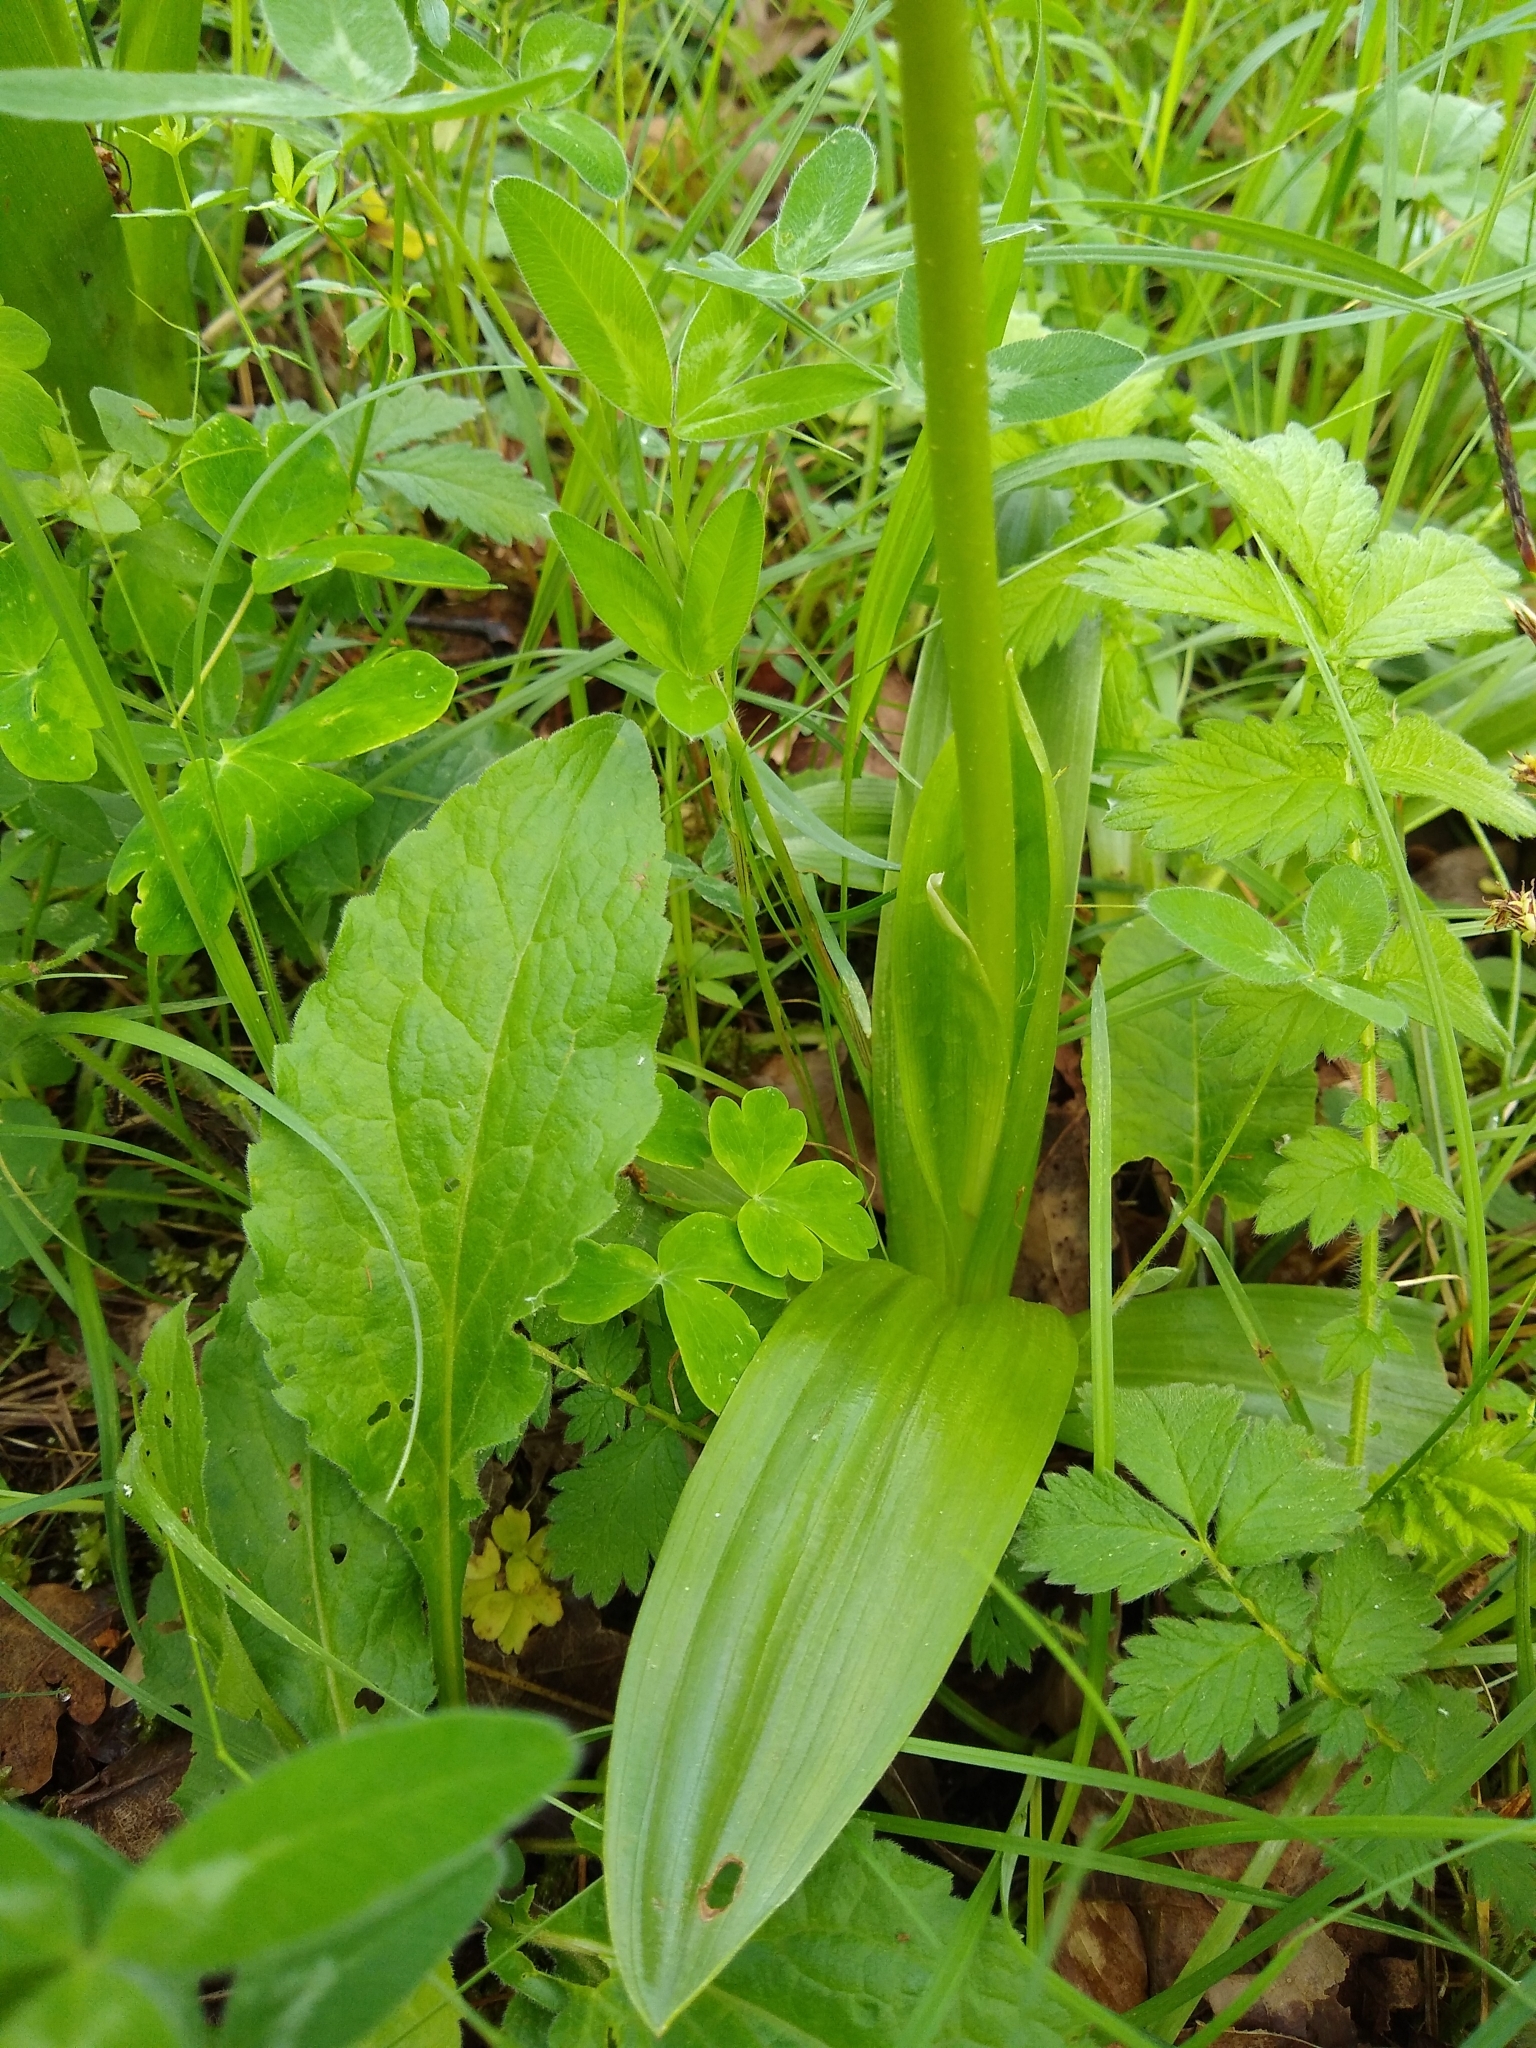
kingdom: Plantae
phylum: Tracheophyta
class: Liliopsida
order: Asparagales
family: Orchidaceae
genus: Orchis
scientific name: Orchis militaris
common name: Military orchid
